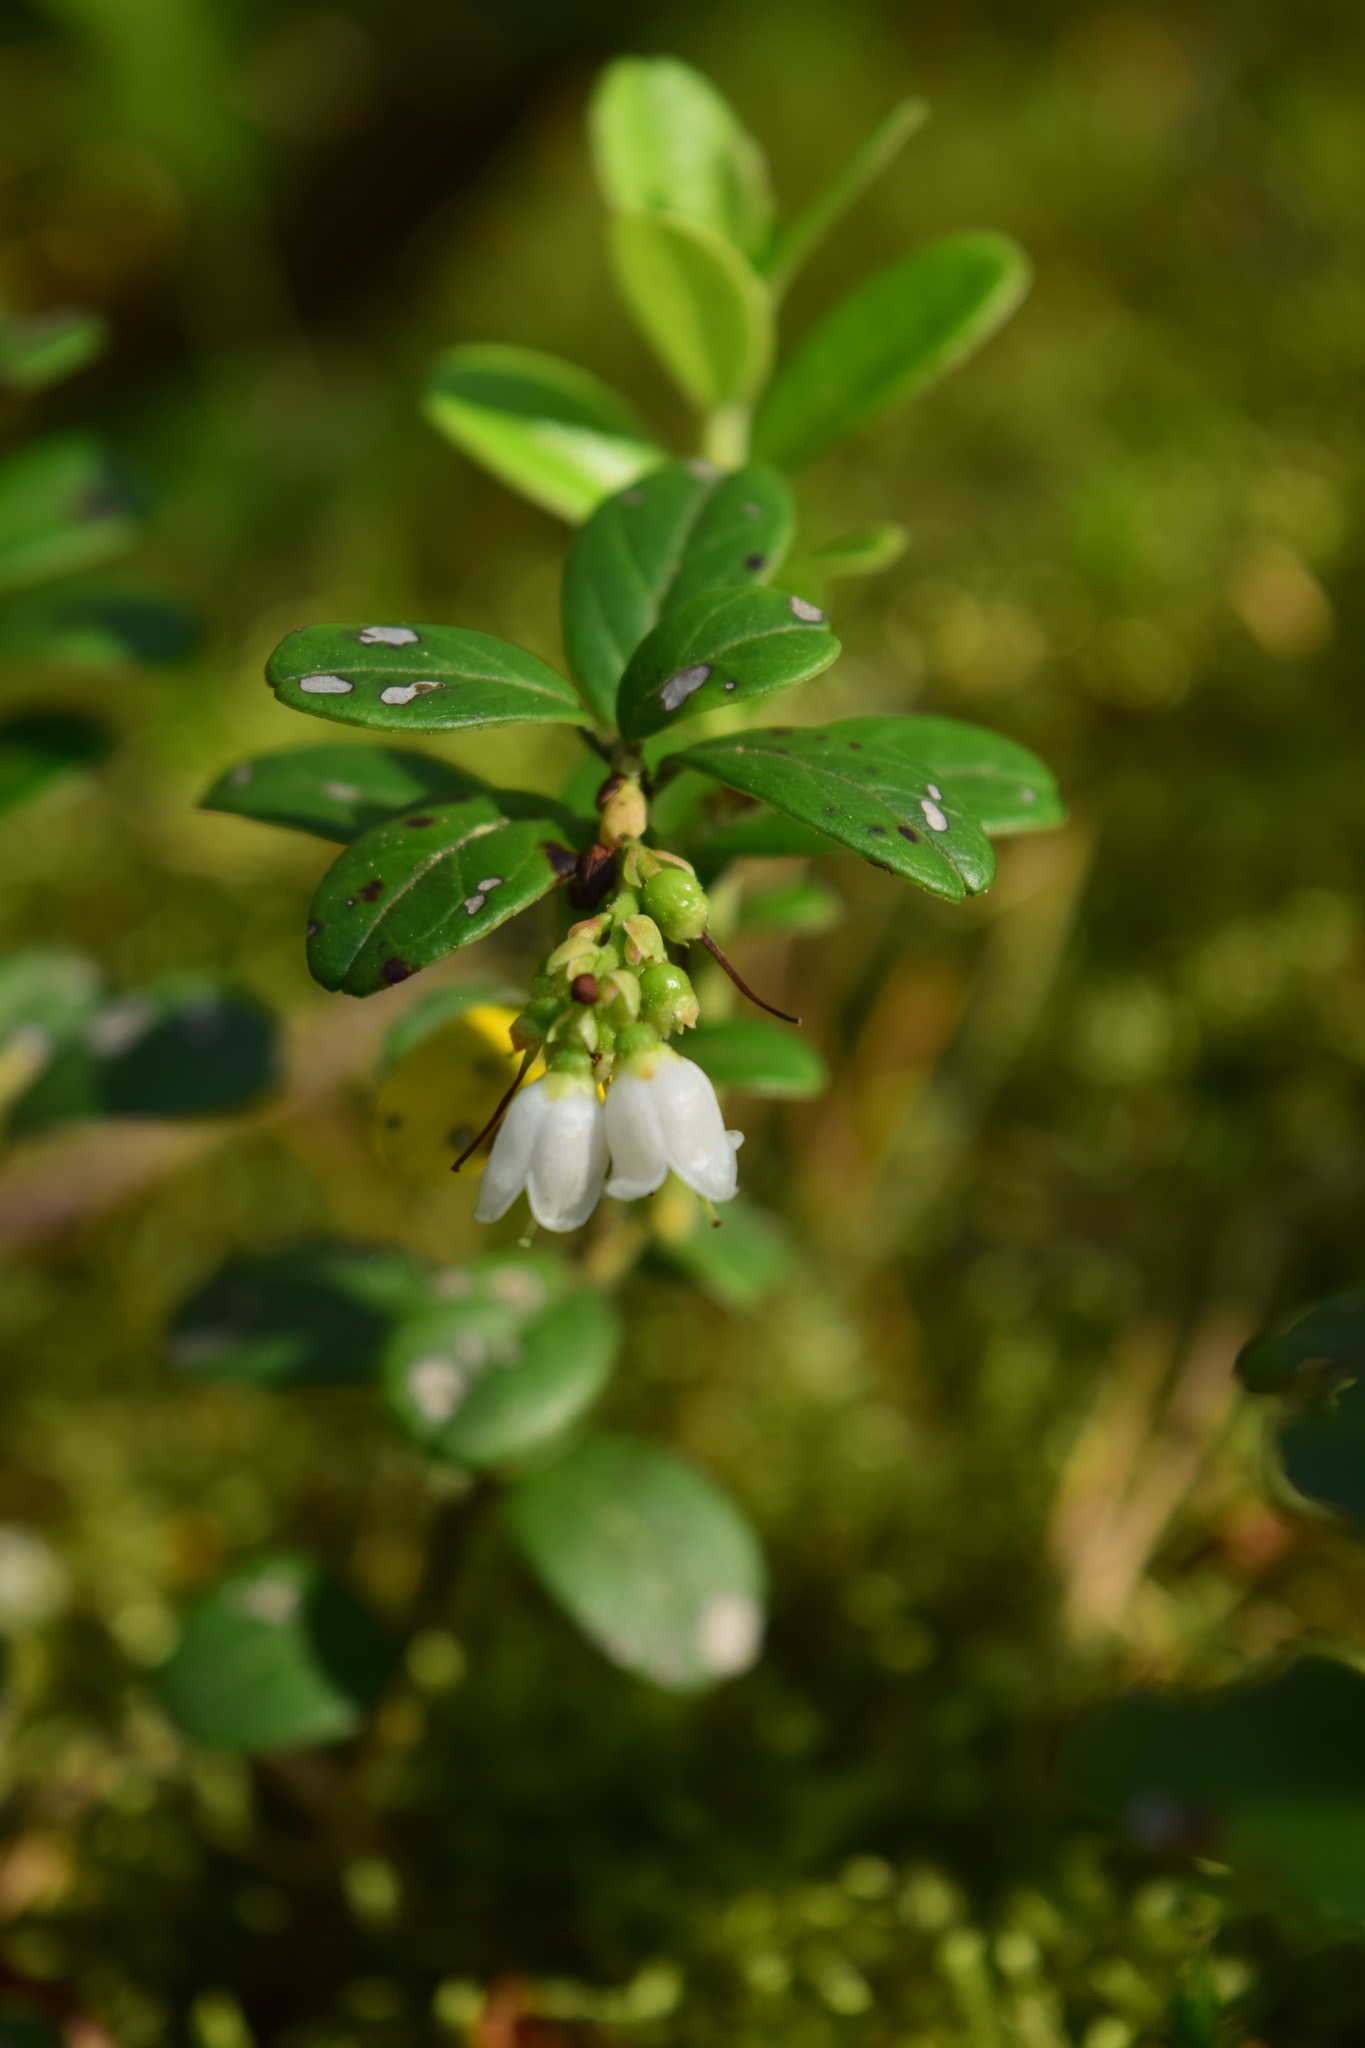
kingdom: Plantae
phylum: Tracheophyta
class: Magnoliopsida
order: Ericales
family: Ericaceae
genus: Vaccinium
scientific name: Vaccinium vitis-idaea
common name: Cowberry
